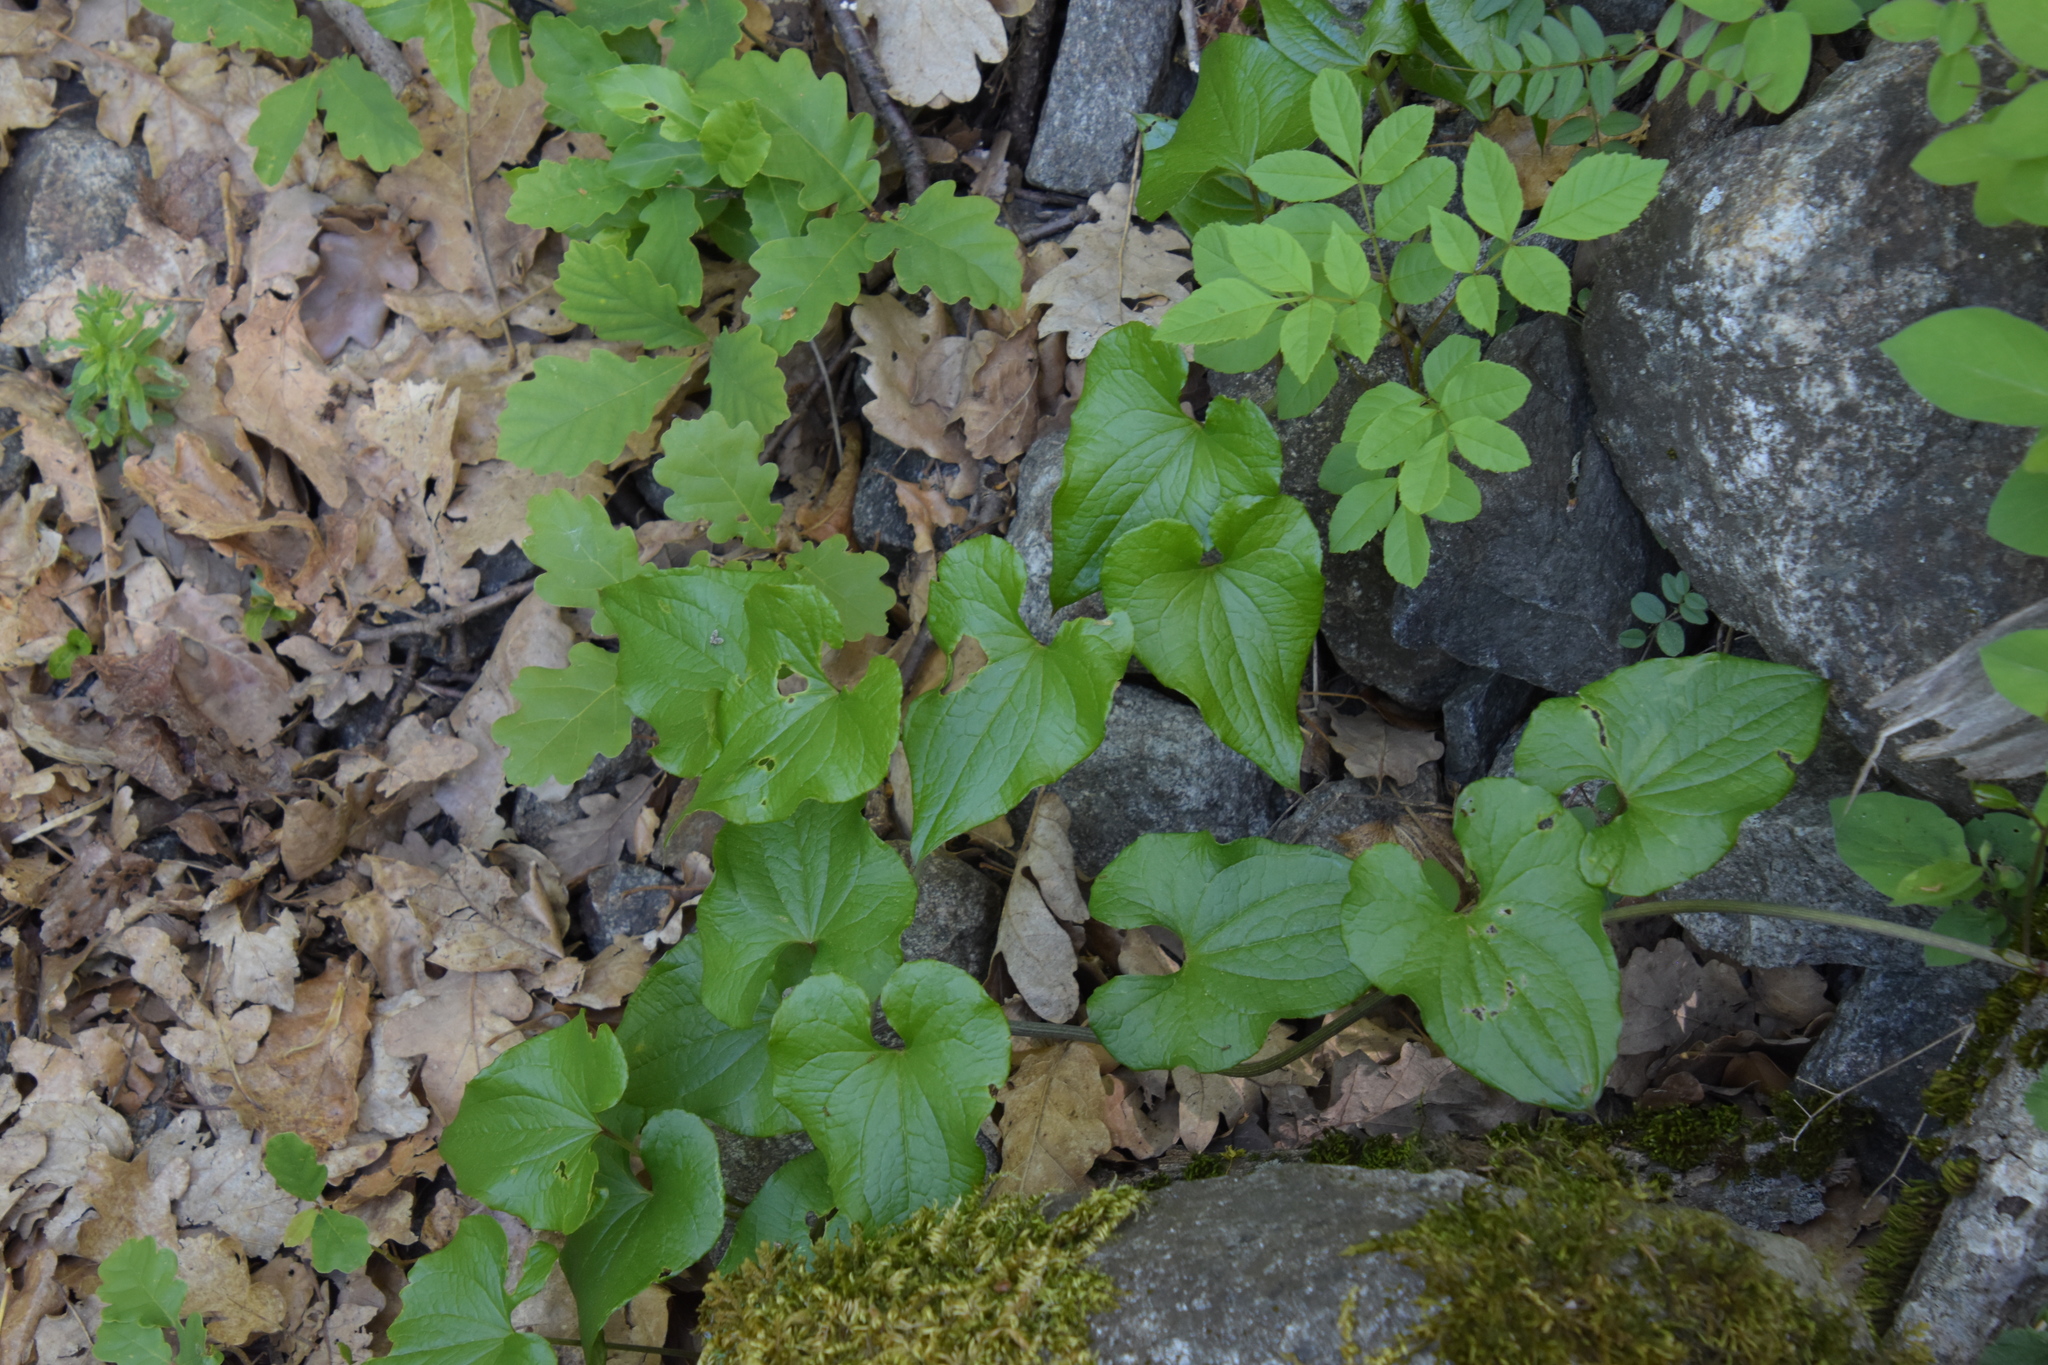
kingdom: Plantae
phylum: Tracheophyta
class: Liliopsida
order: Dioscoreales
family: Dioscoreaceae
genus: Dioscorea
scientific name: Dioscorea communis
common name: Black-bindweed
